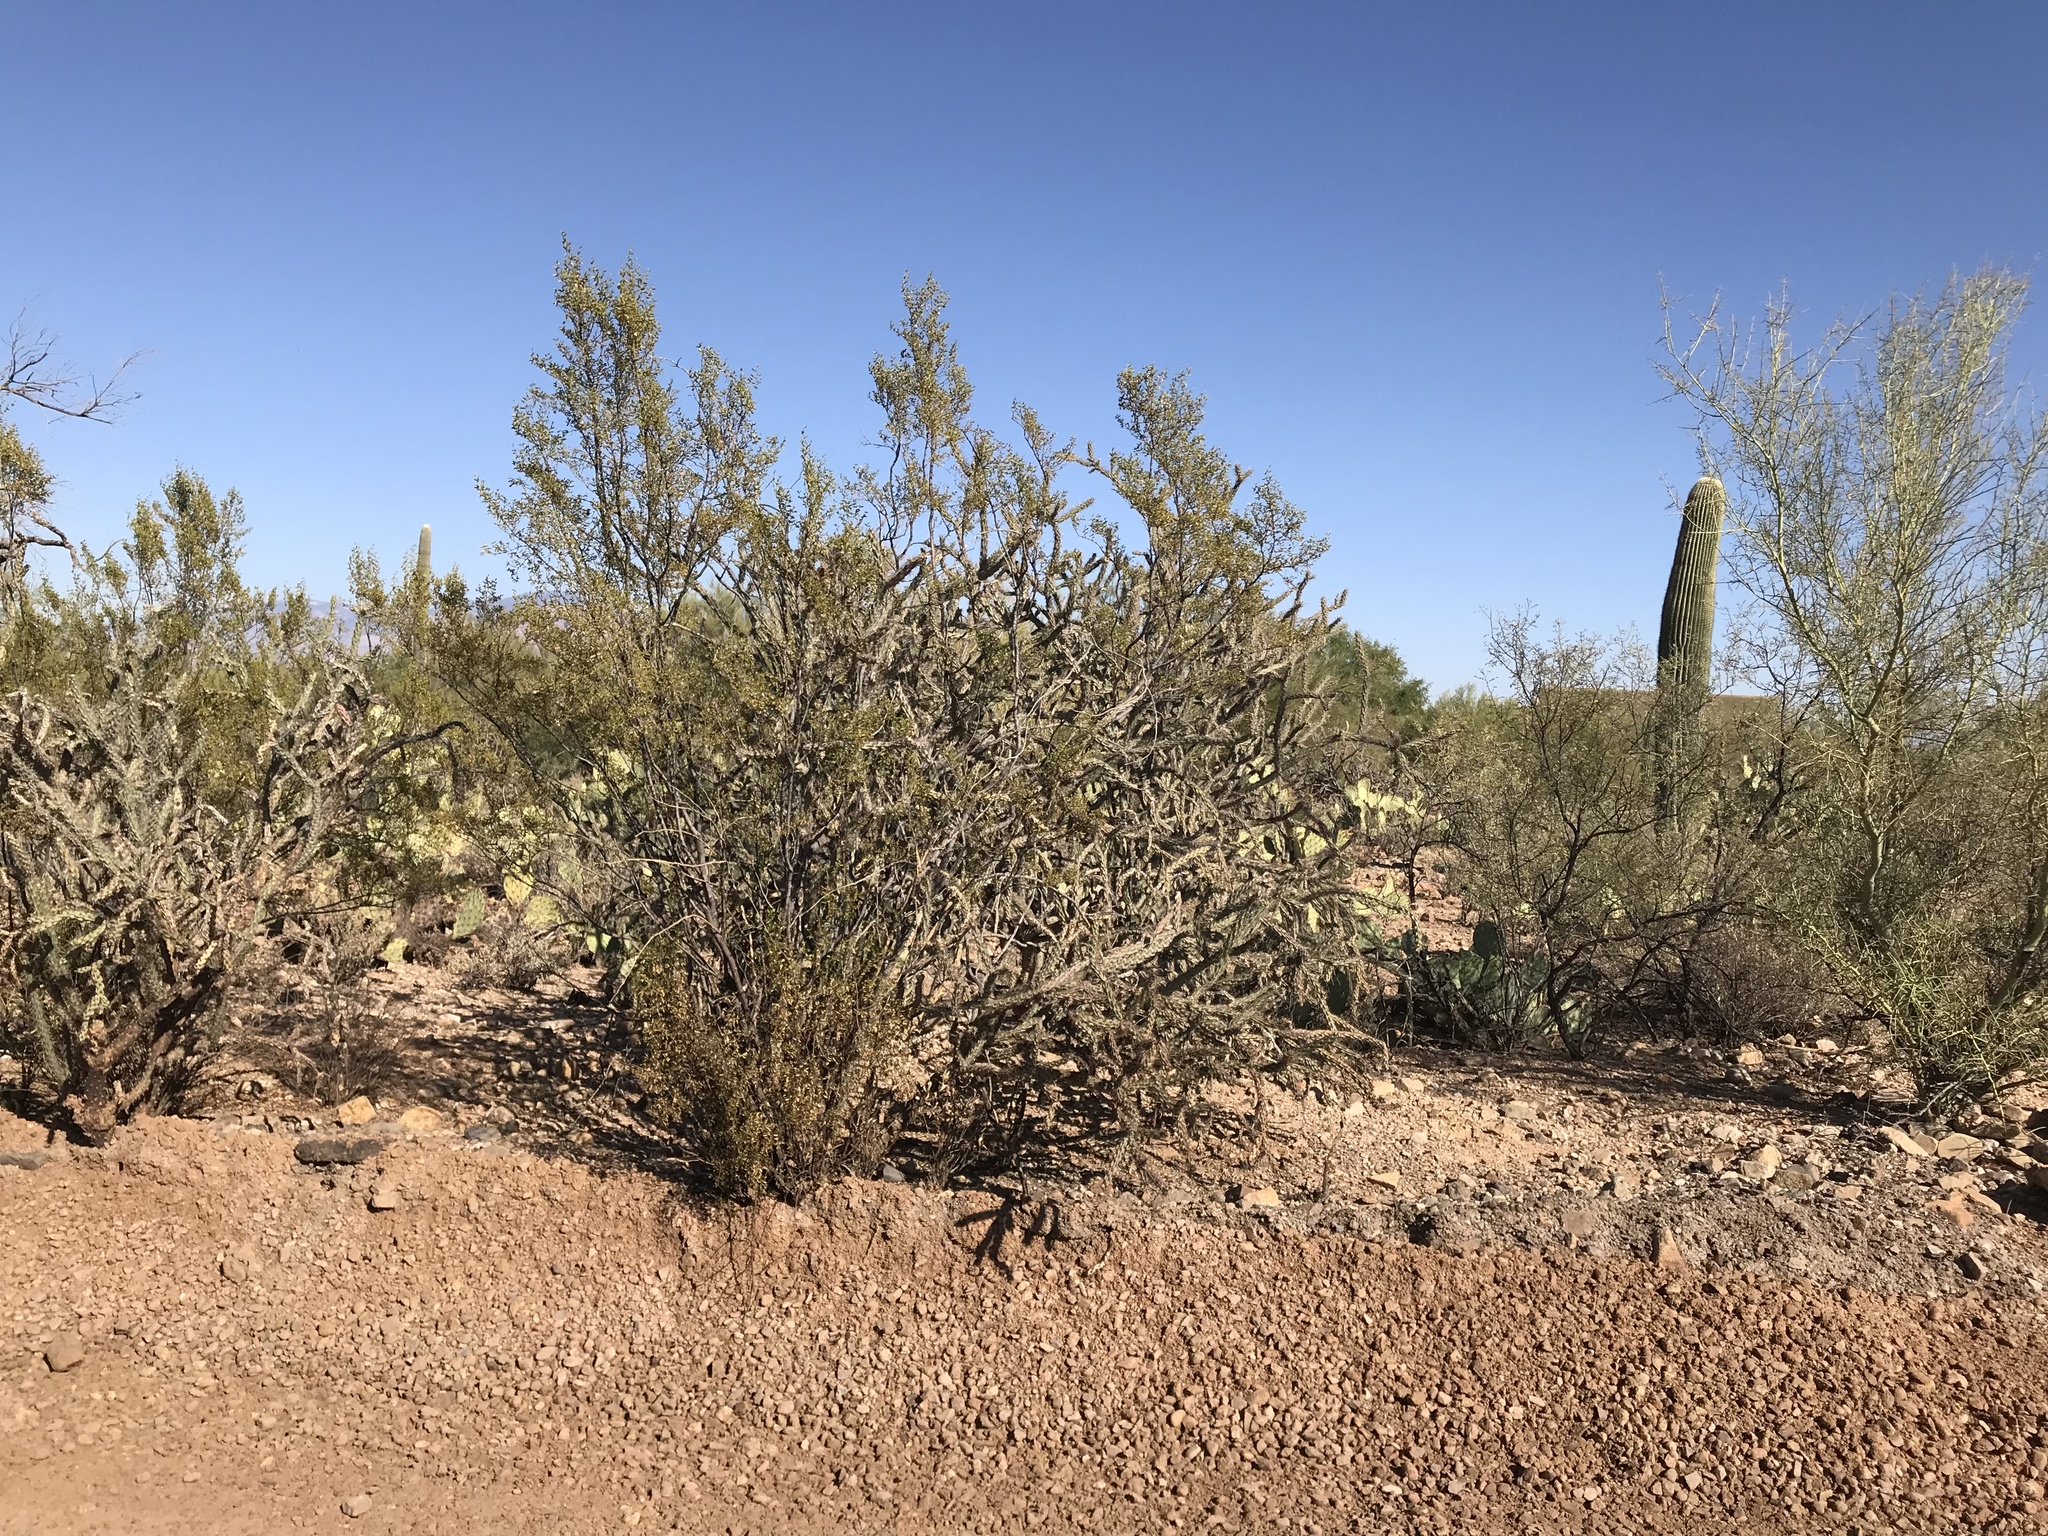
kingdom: Plantae
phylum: Tracheophyta
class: Magnoliopsida
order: Zygophyllales
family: Zygophyllaceae
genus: Larrea
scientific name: Larrea tridentata
